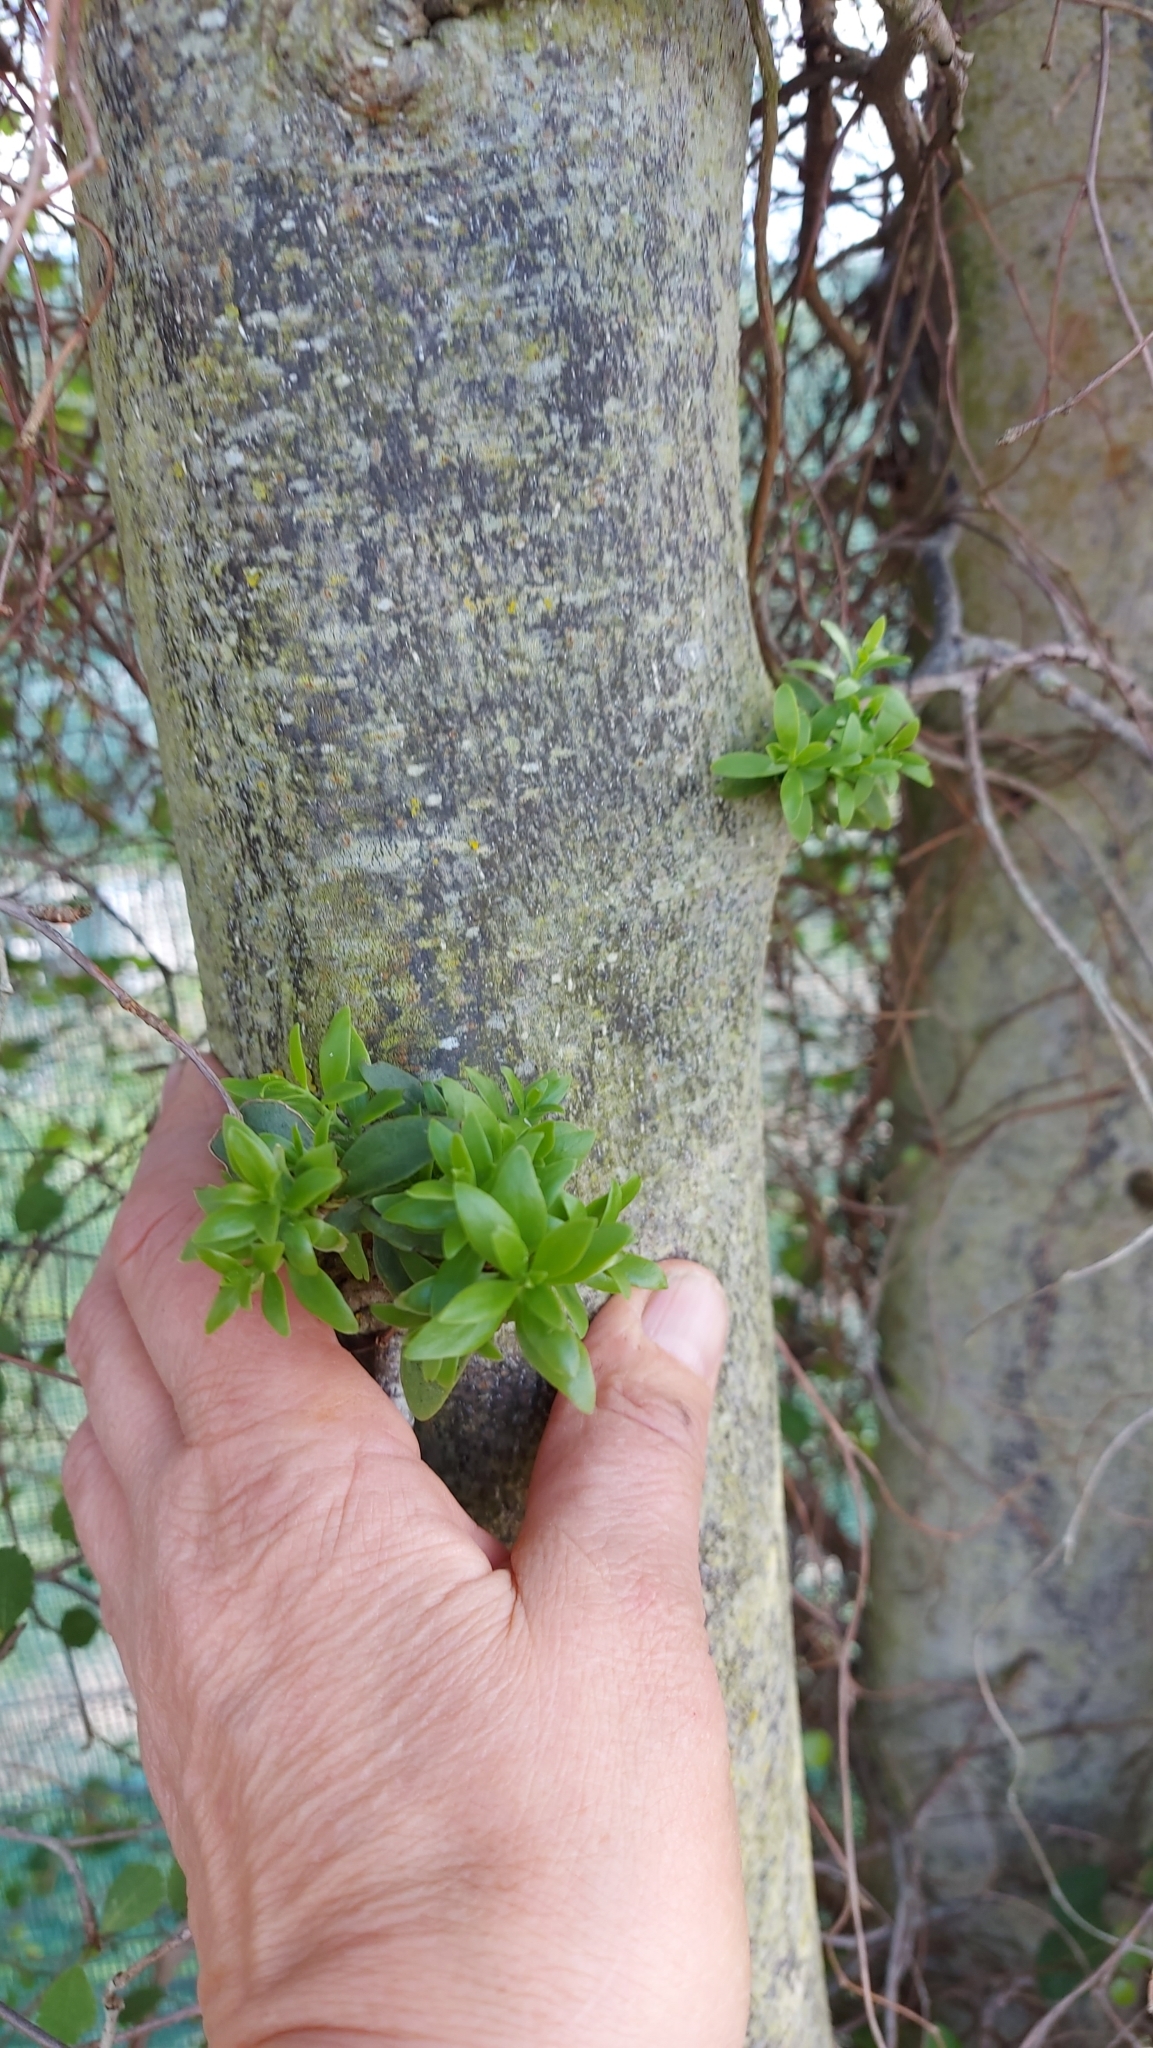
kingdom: Plantae
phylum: Tracheophyta
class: Magnoliopsida
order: Santalales
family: Loranthaceae
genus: Tupeia
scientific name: Tupeia antarctica
